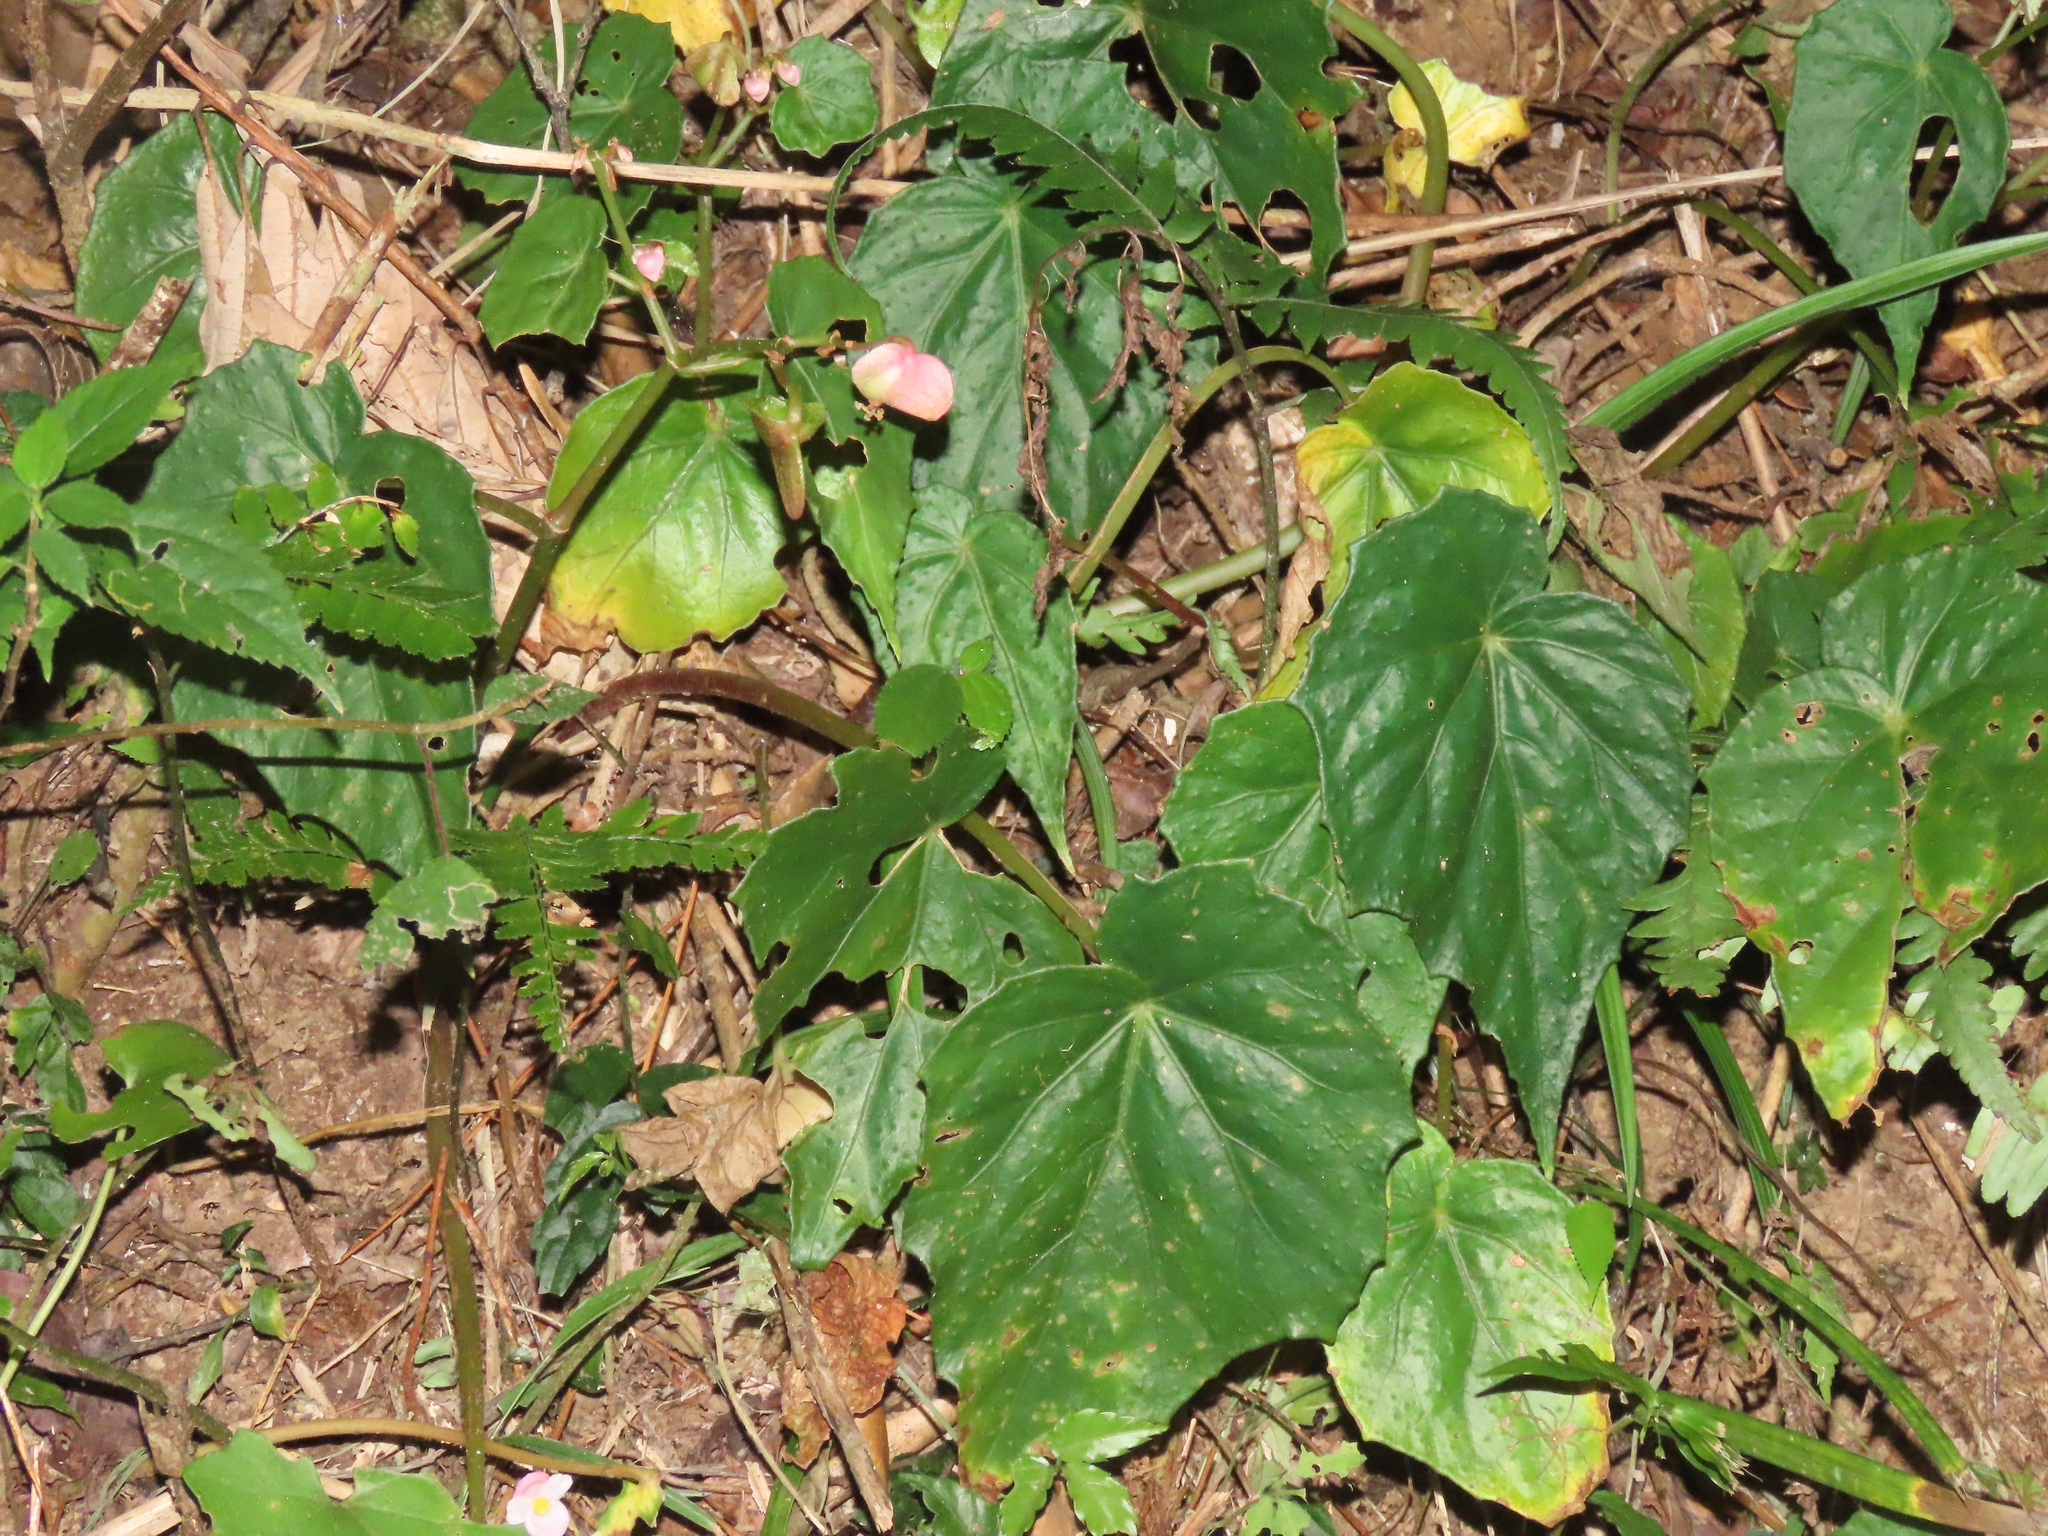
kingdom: Plantae
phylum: Tracheophyta
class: Magnoliopsida
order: Cucurbitales
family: Begoniaceae
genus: Begonia
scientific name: Begonia formosana
